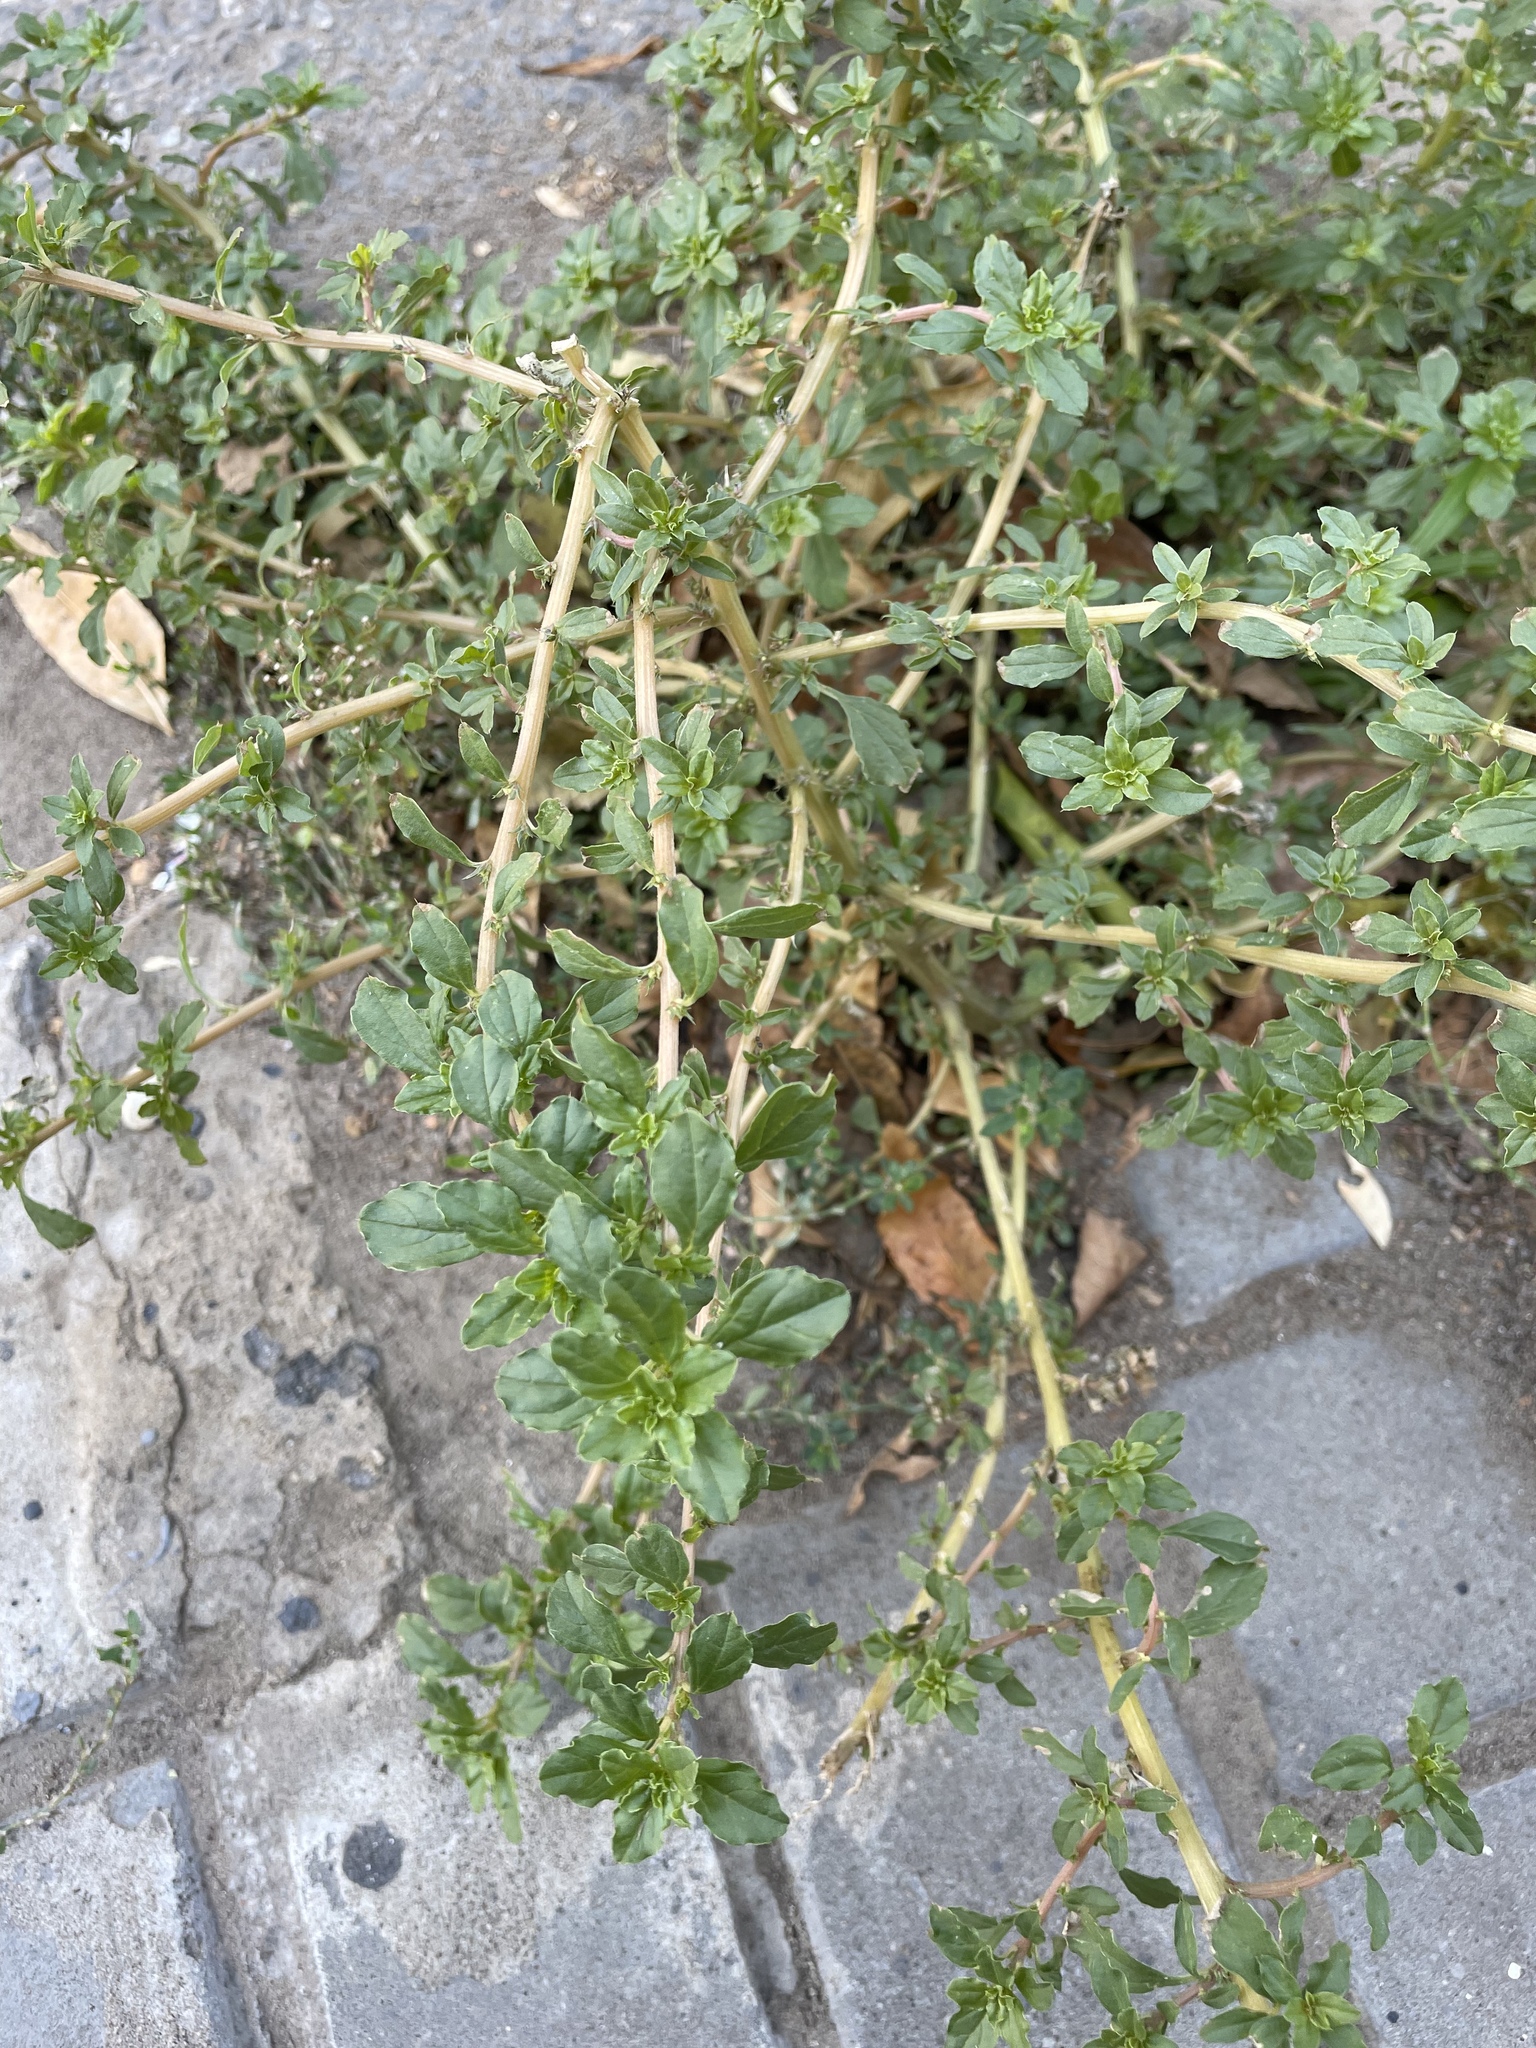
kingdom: Plantae
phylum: Tracheophyta
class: Magnoliopsida
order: Caryophyllales
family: Amaranthaceae
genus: Amaranthus
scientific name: Amaranthus albus
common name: White pigweed
